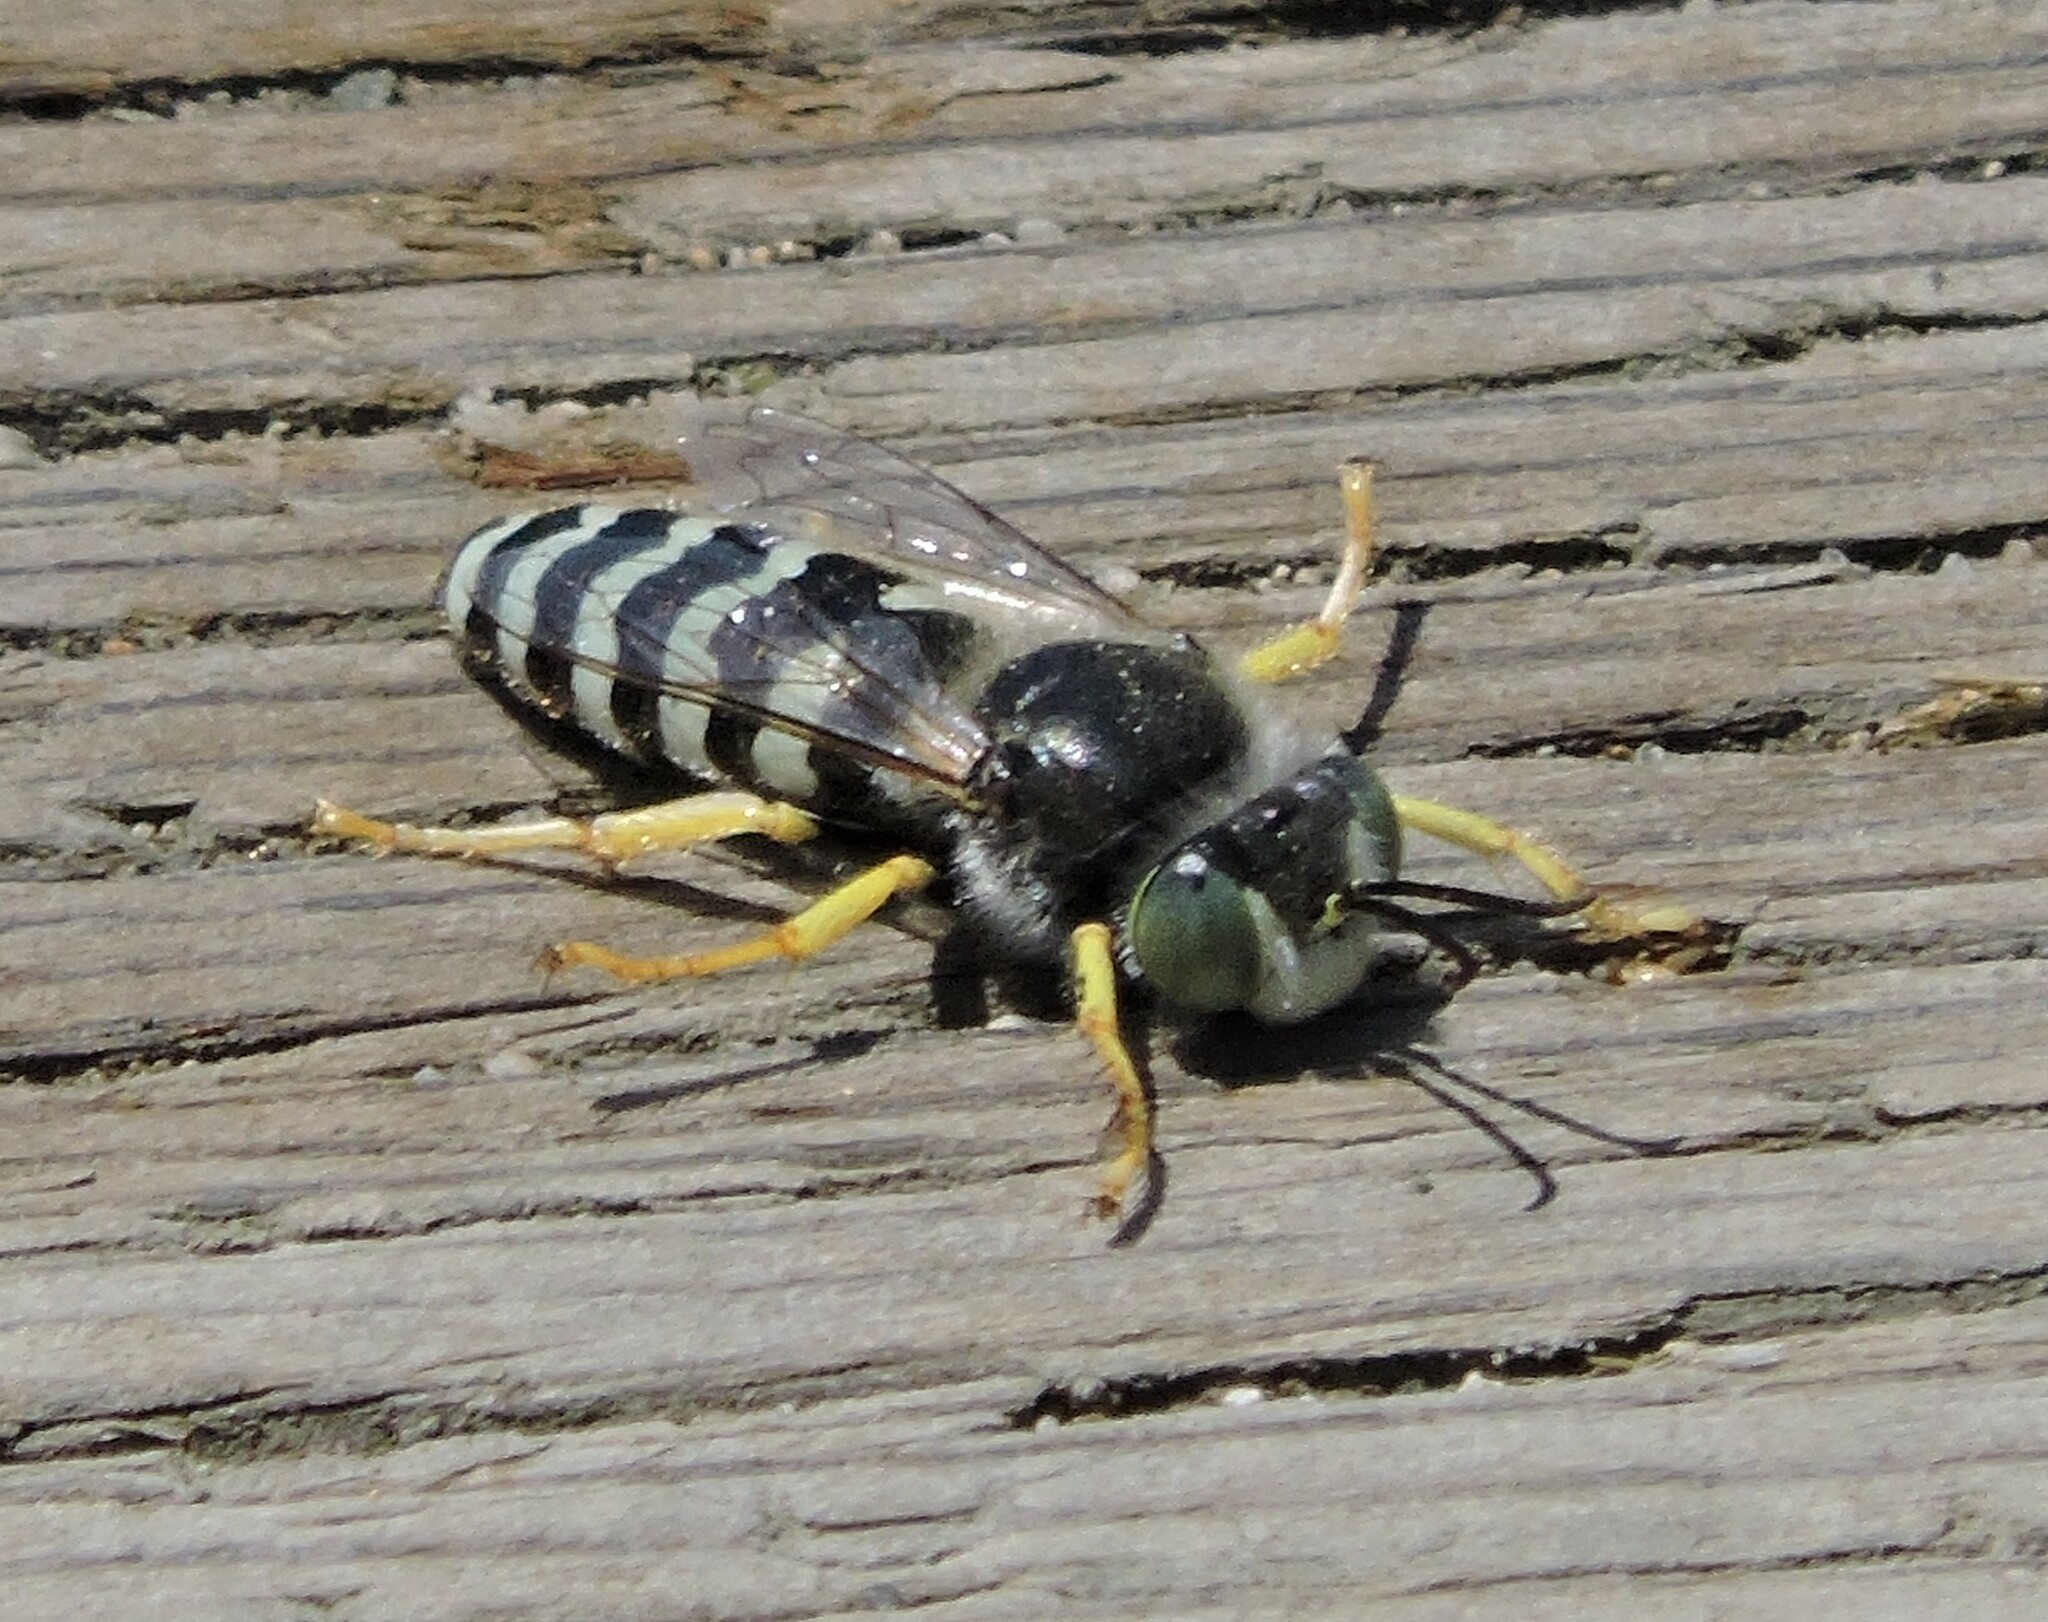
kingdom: Animalia
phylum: Arthropoda
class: Insecta
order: Hymenoptera
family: Crabronidae
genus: Bembix
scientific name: Bembix americana
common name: American sand wasp
